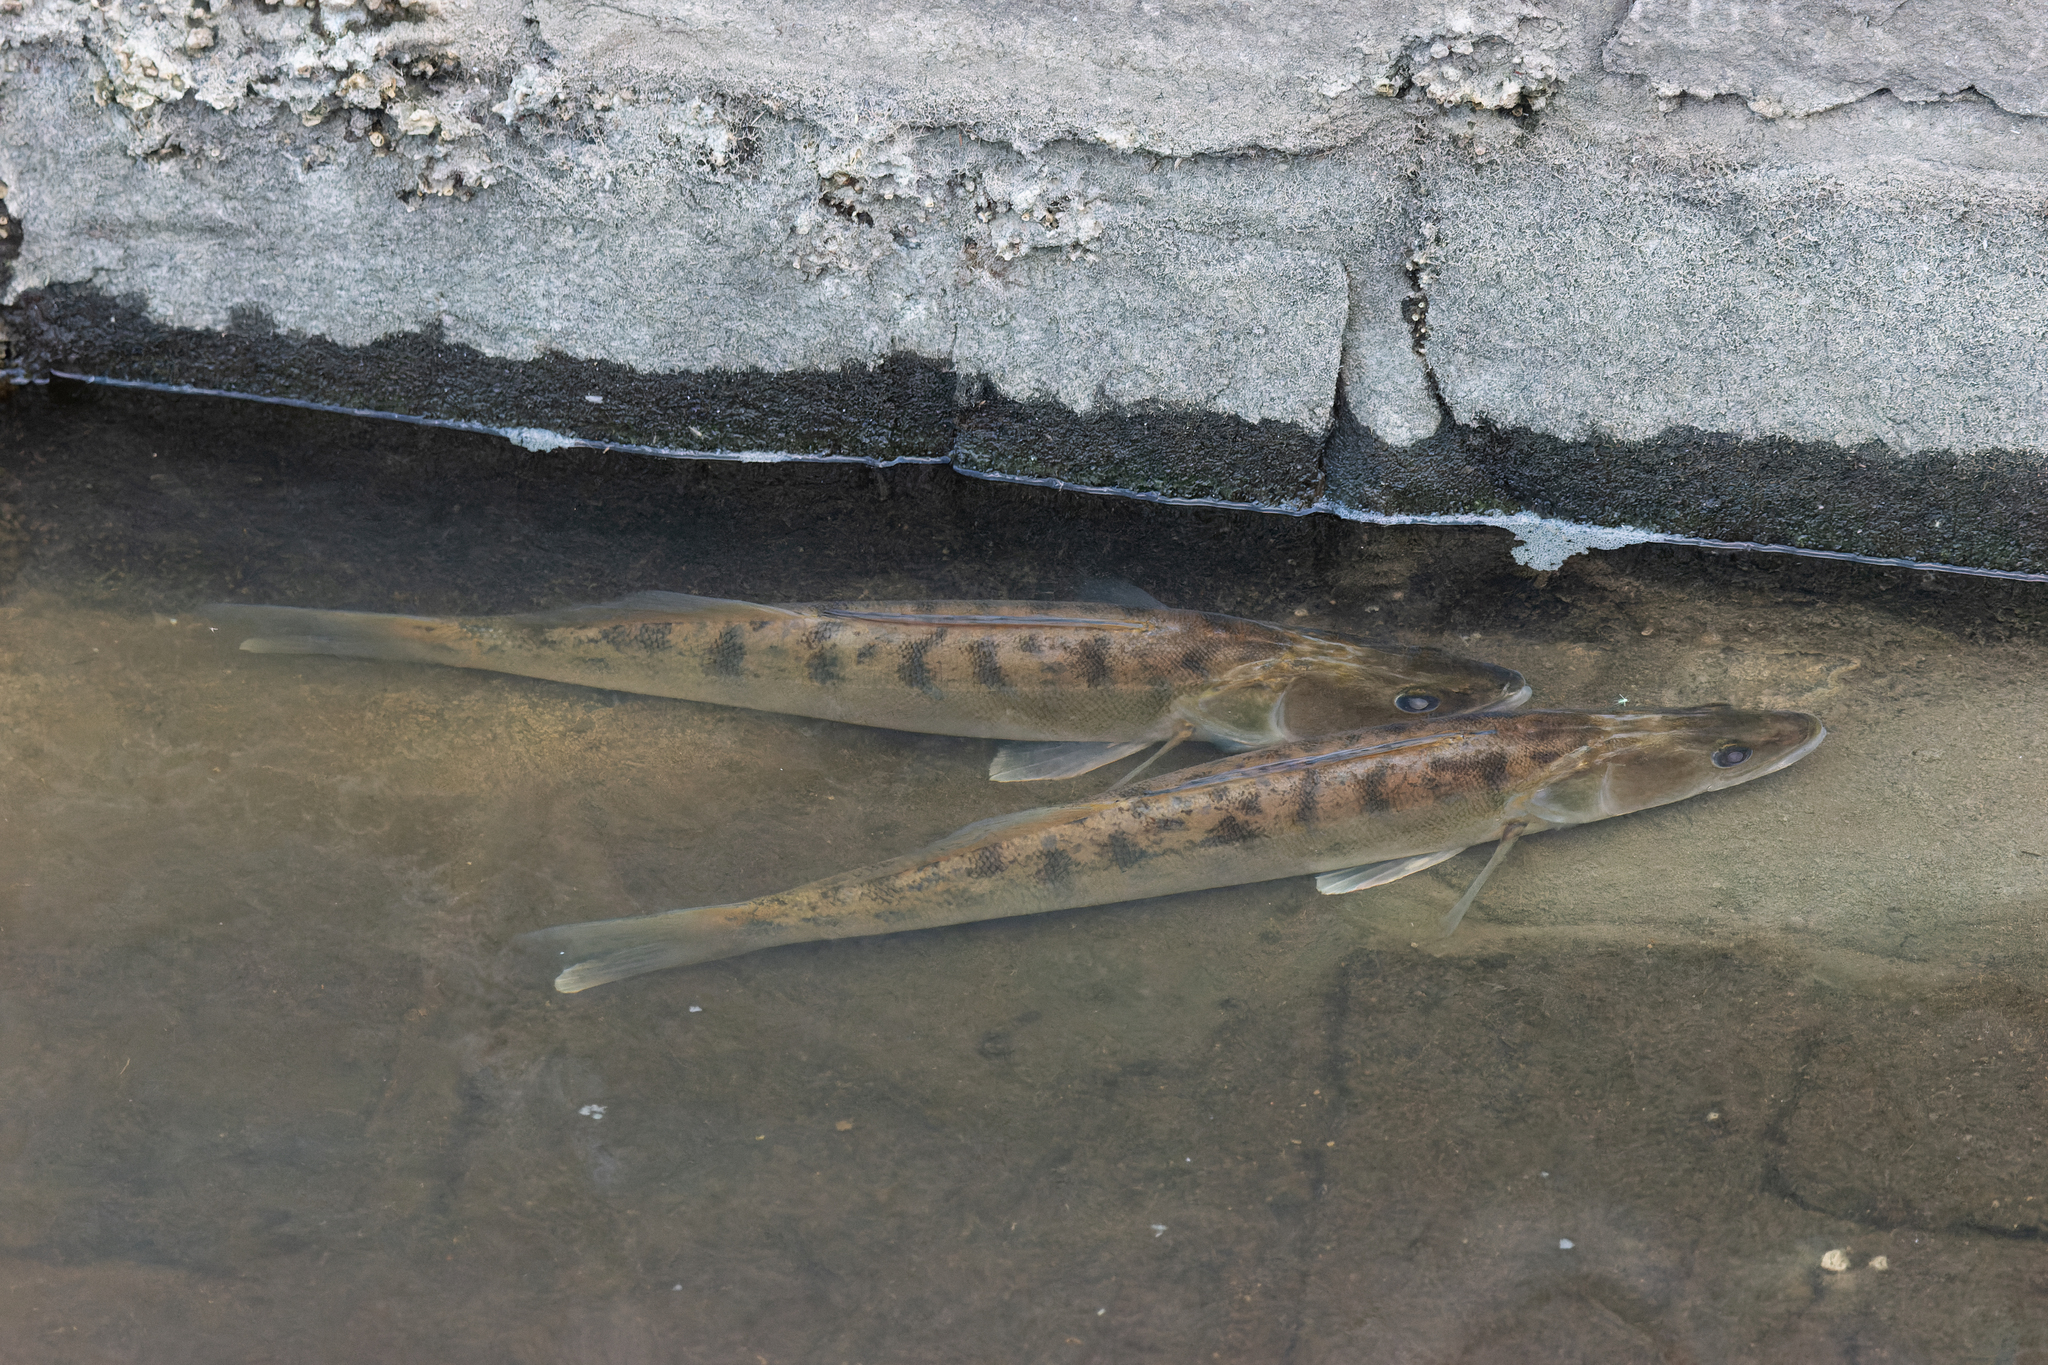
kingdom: Animalia
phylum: Chordata
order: Perciformes
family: Percidae
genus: Sander
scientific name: Sander lucioperca
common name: Pikeperch
